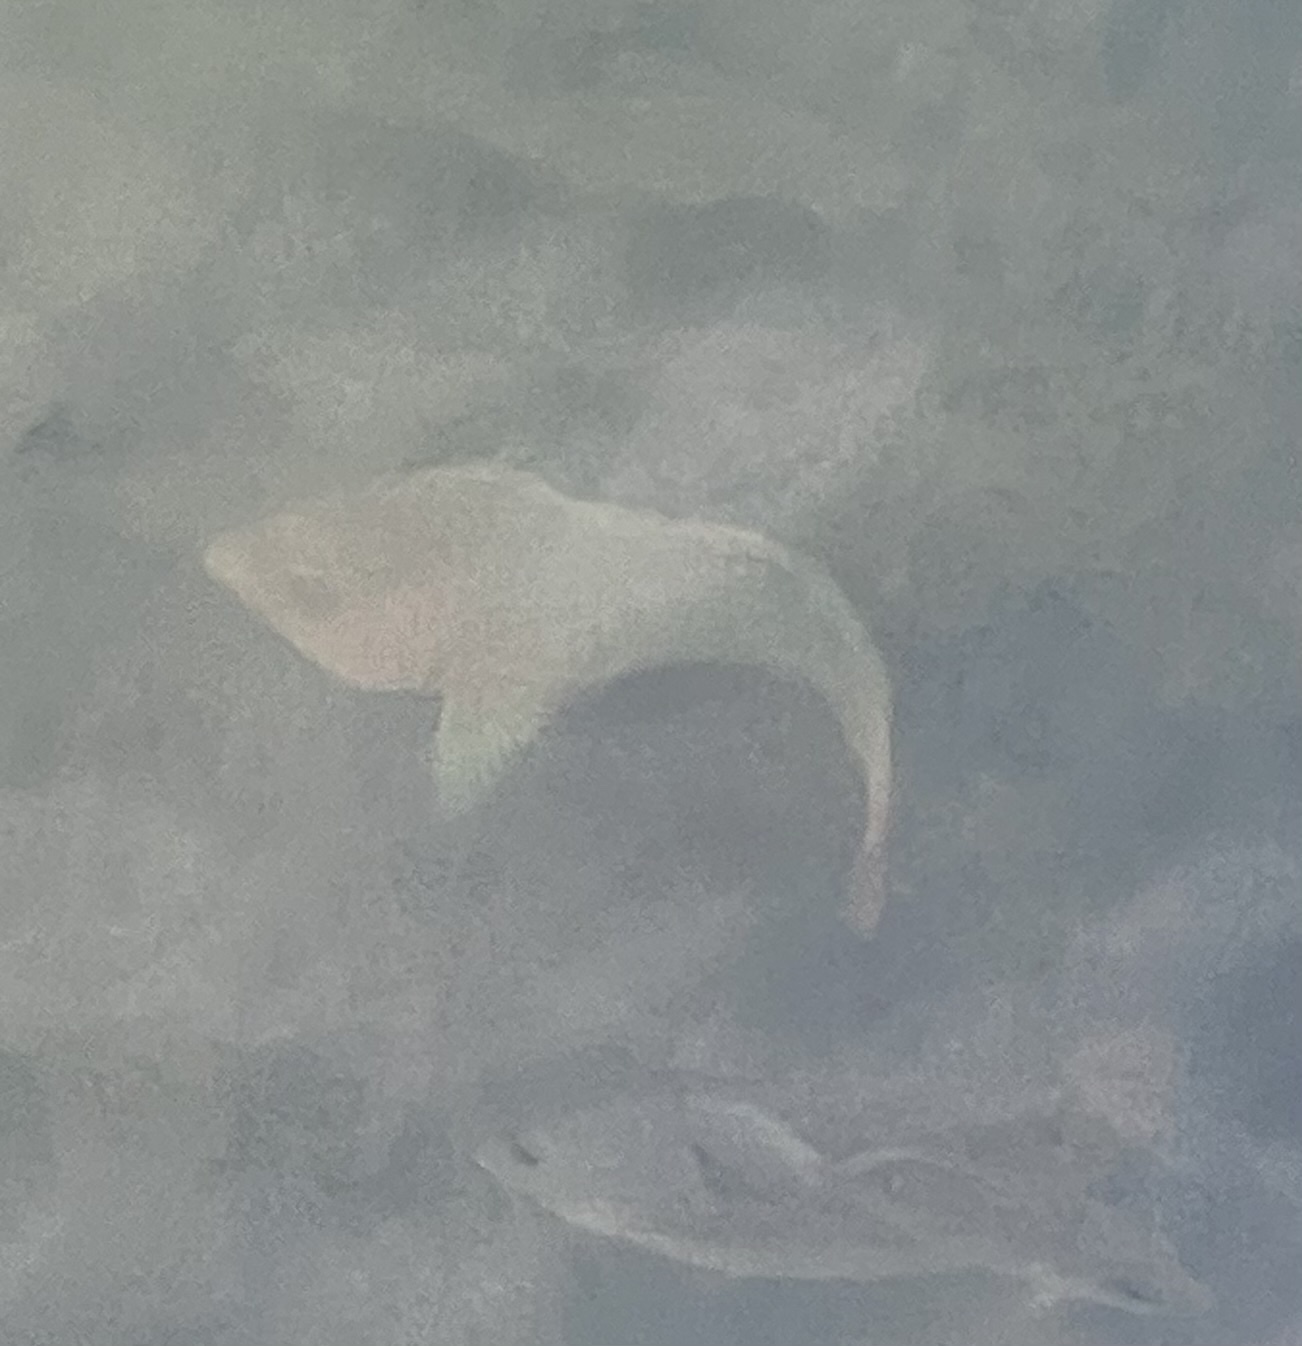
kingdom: Animalia
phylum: Chordata
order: Perciformes
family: Scaridae
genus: Scarus
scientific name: Scarus guacamaia
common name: Rainbow parrotfish
